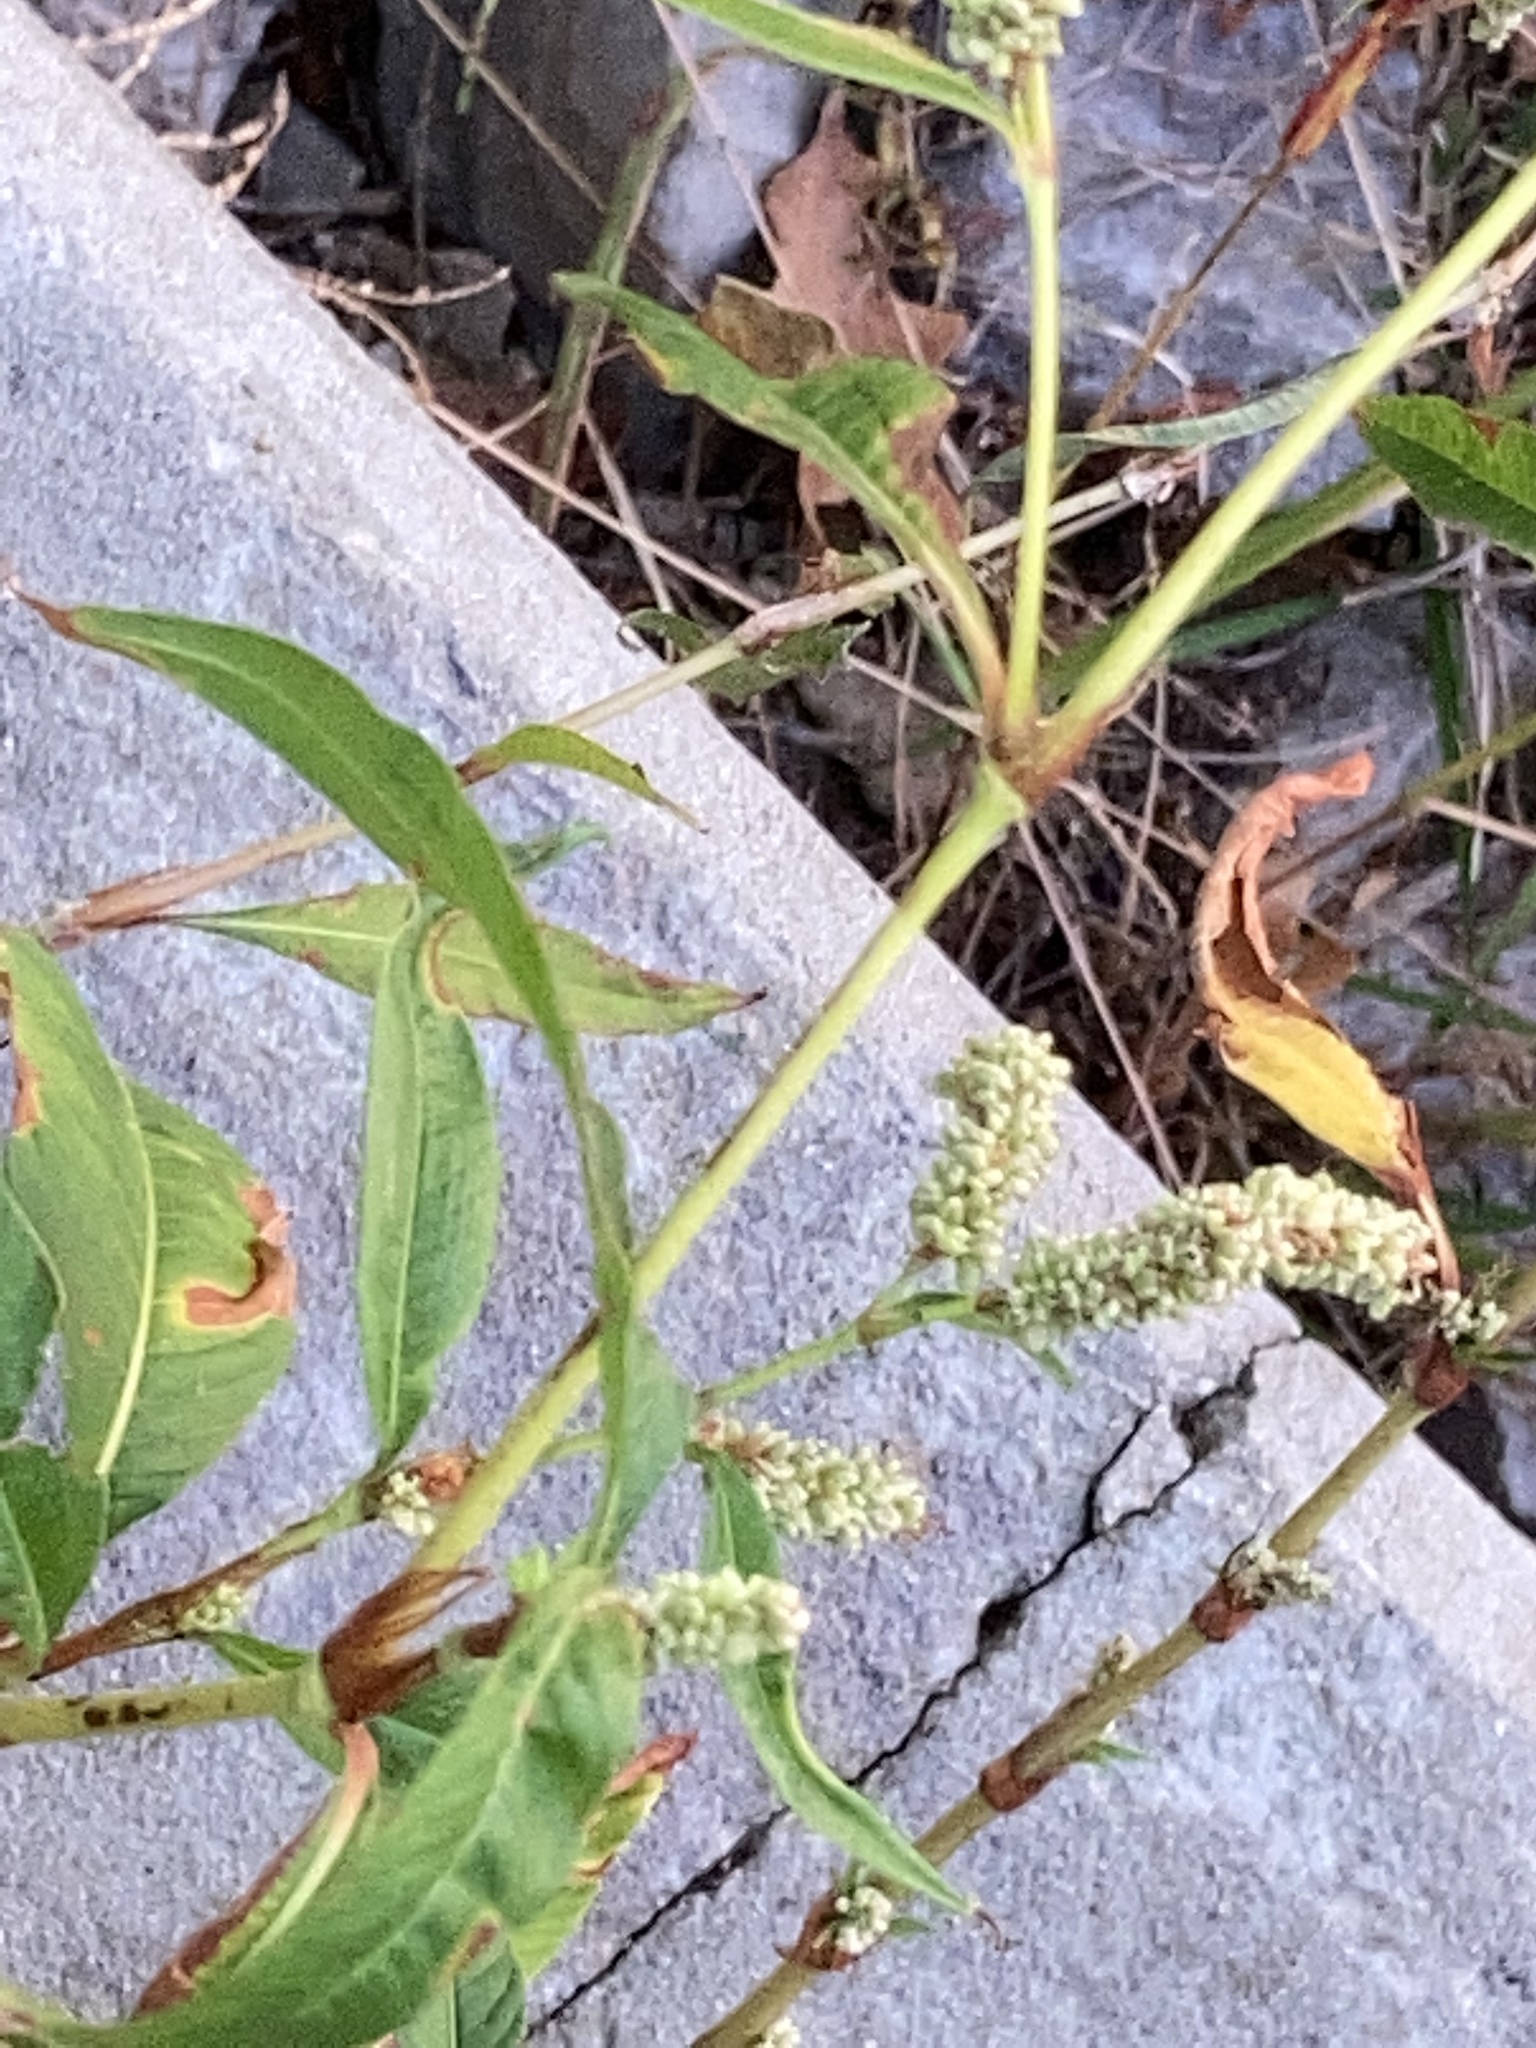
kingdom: Plantae
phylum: Tracheophyta
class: Magnoliopsida
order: Caryophyllales
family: Polygonaceae
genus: Persicaria
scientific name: Persicaria lapathifolia
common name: Curlytop knotweed
